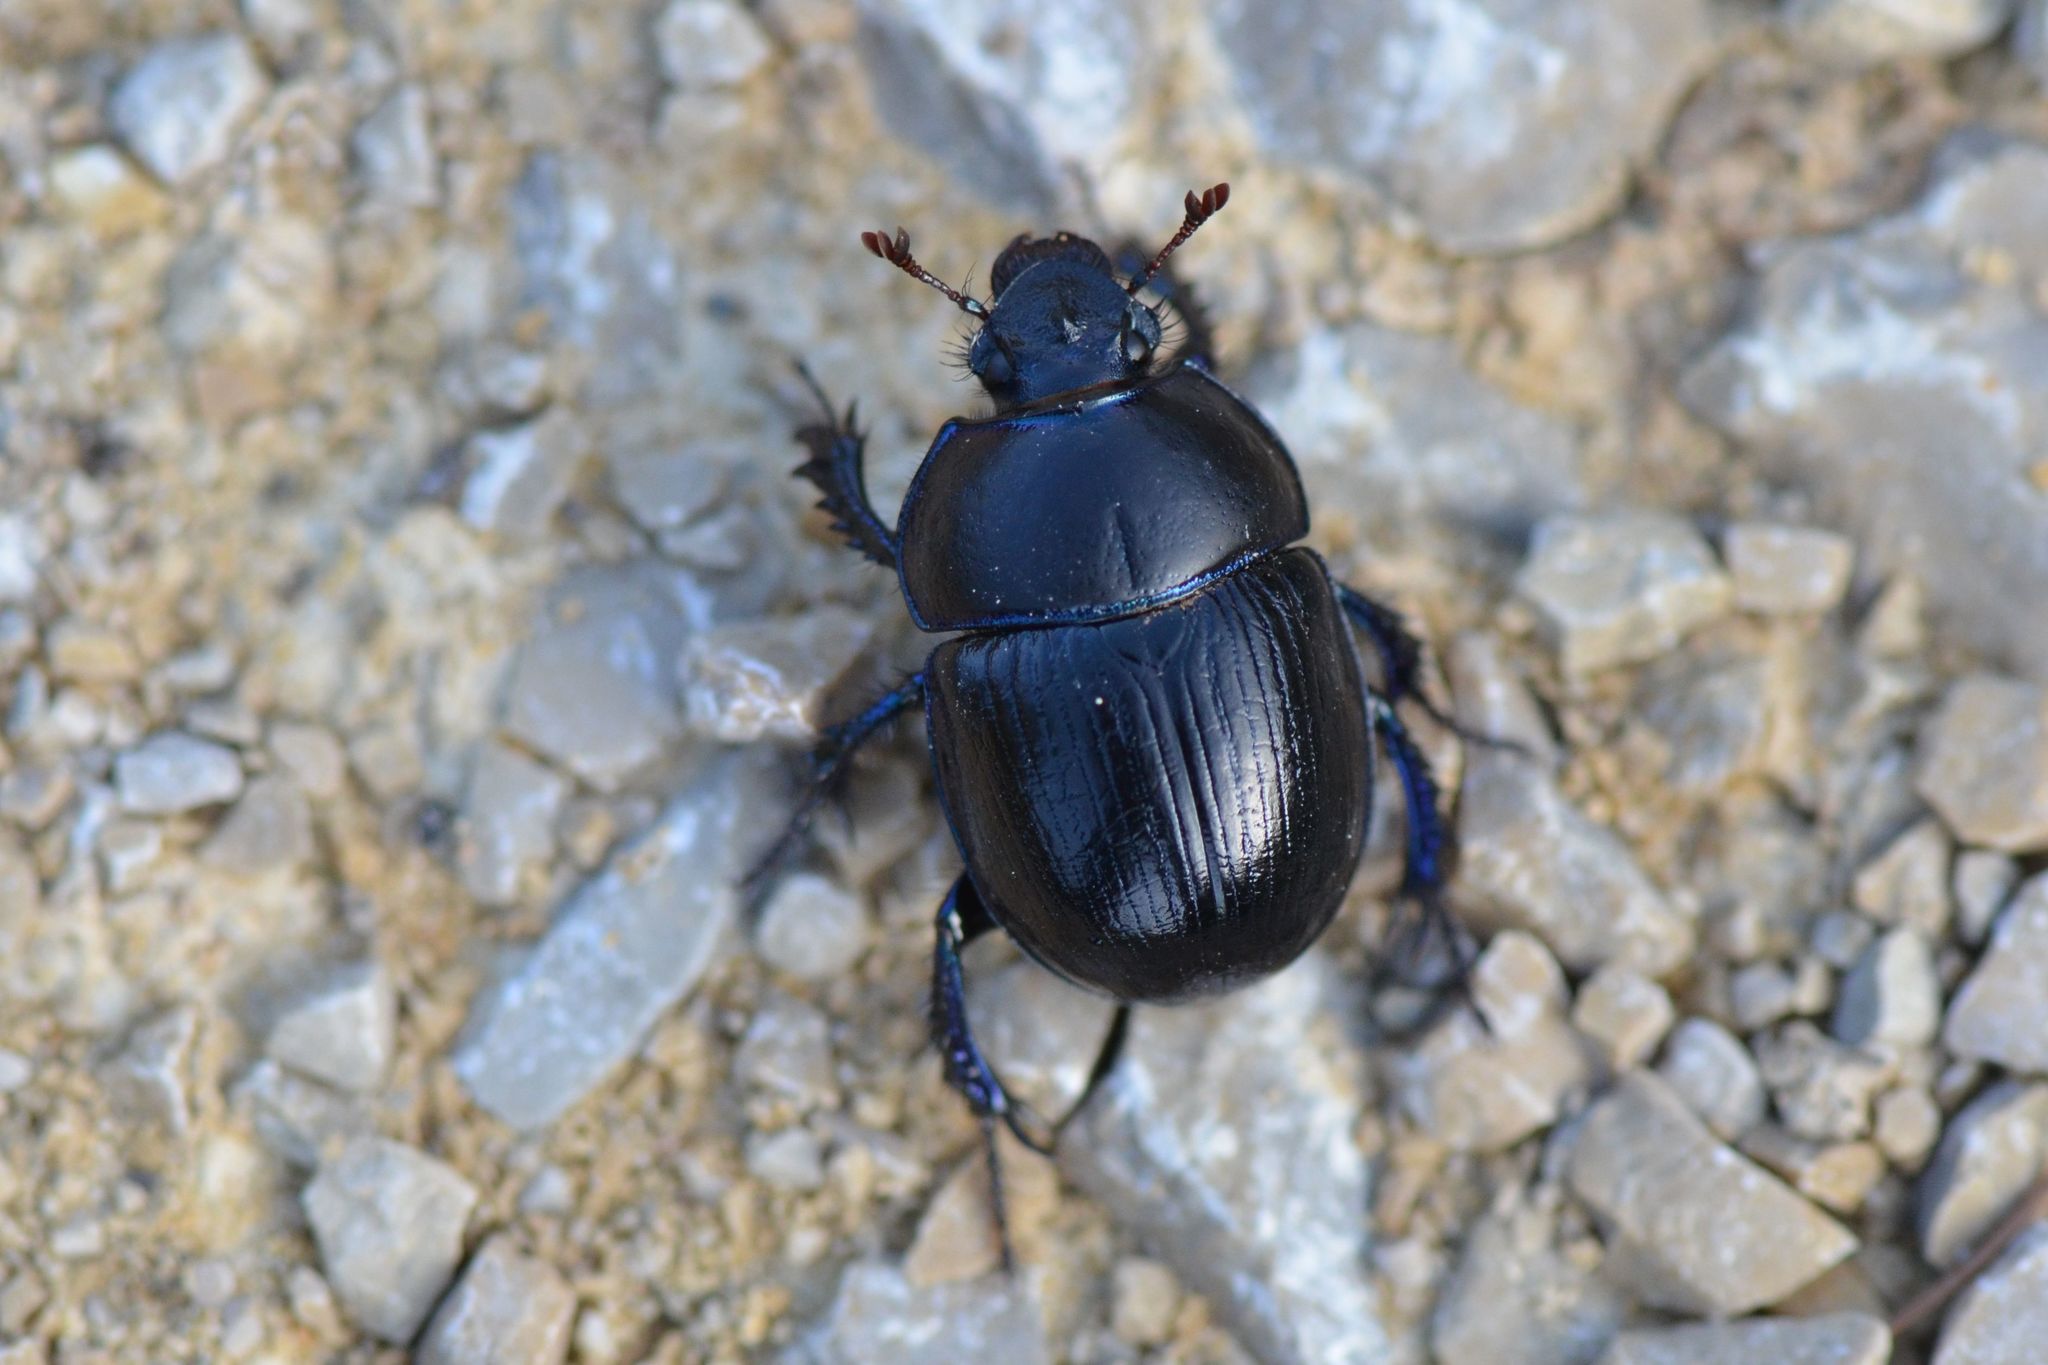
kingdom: Animalia
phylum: Arthropoda
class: Insecta
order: Coleoptera
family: Geotrupidae
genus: Anoplotrupes
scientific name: Anoplotrupes stercorosus
